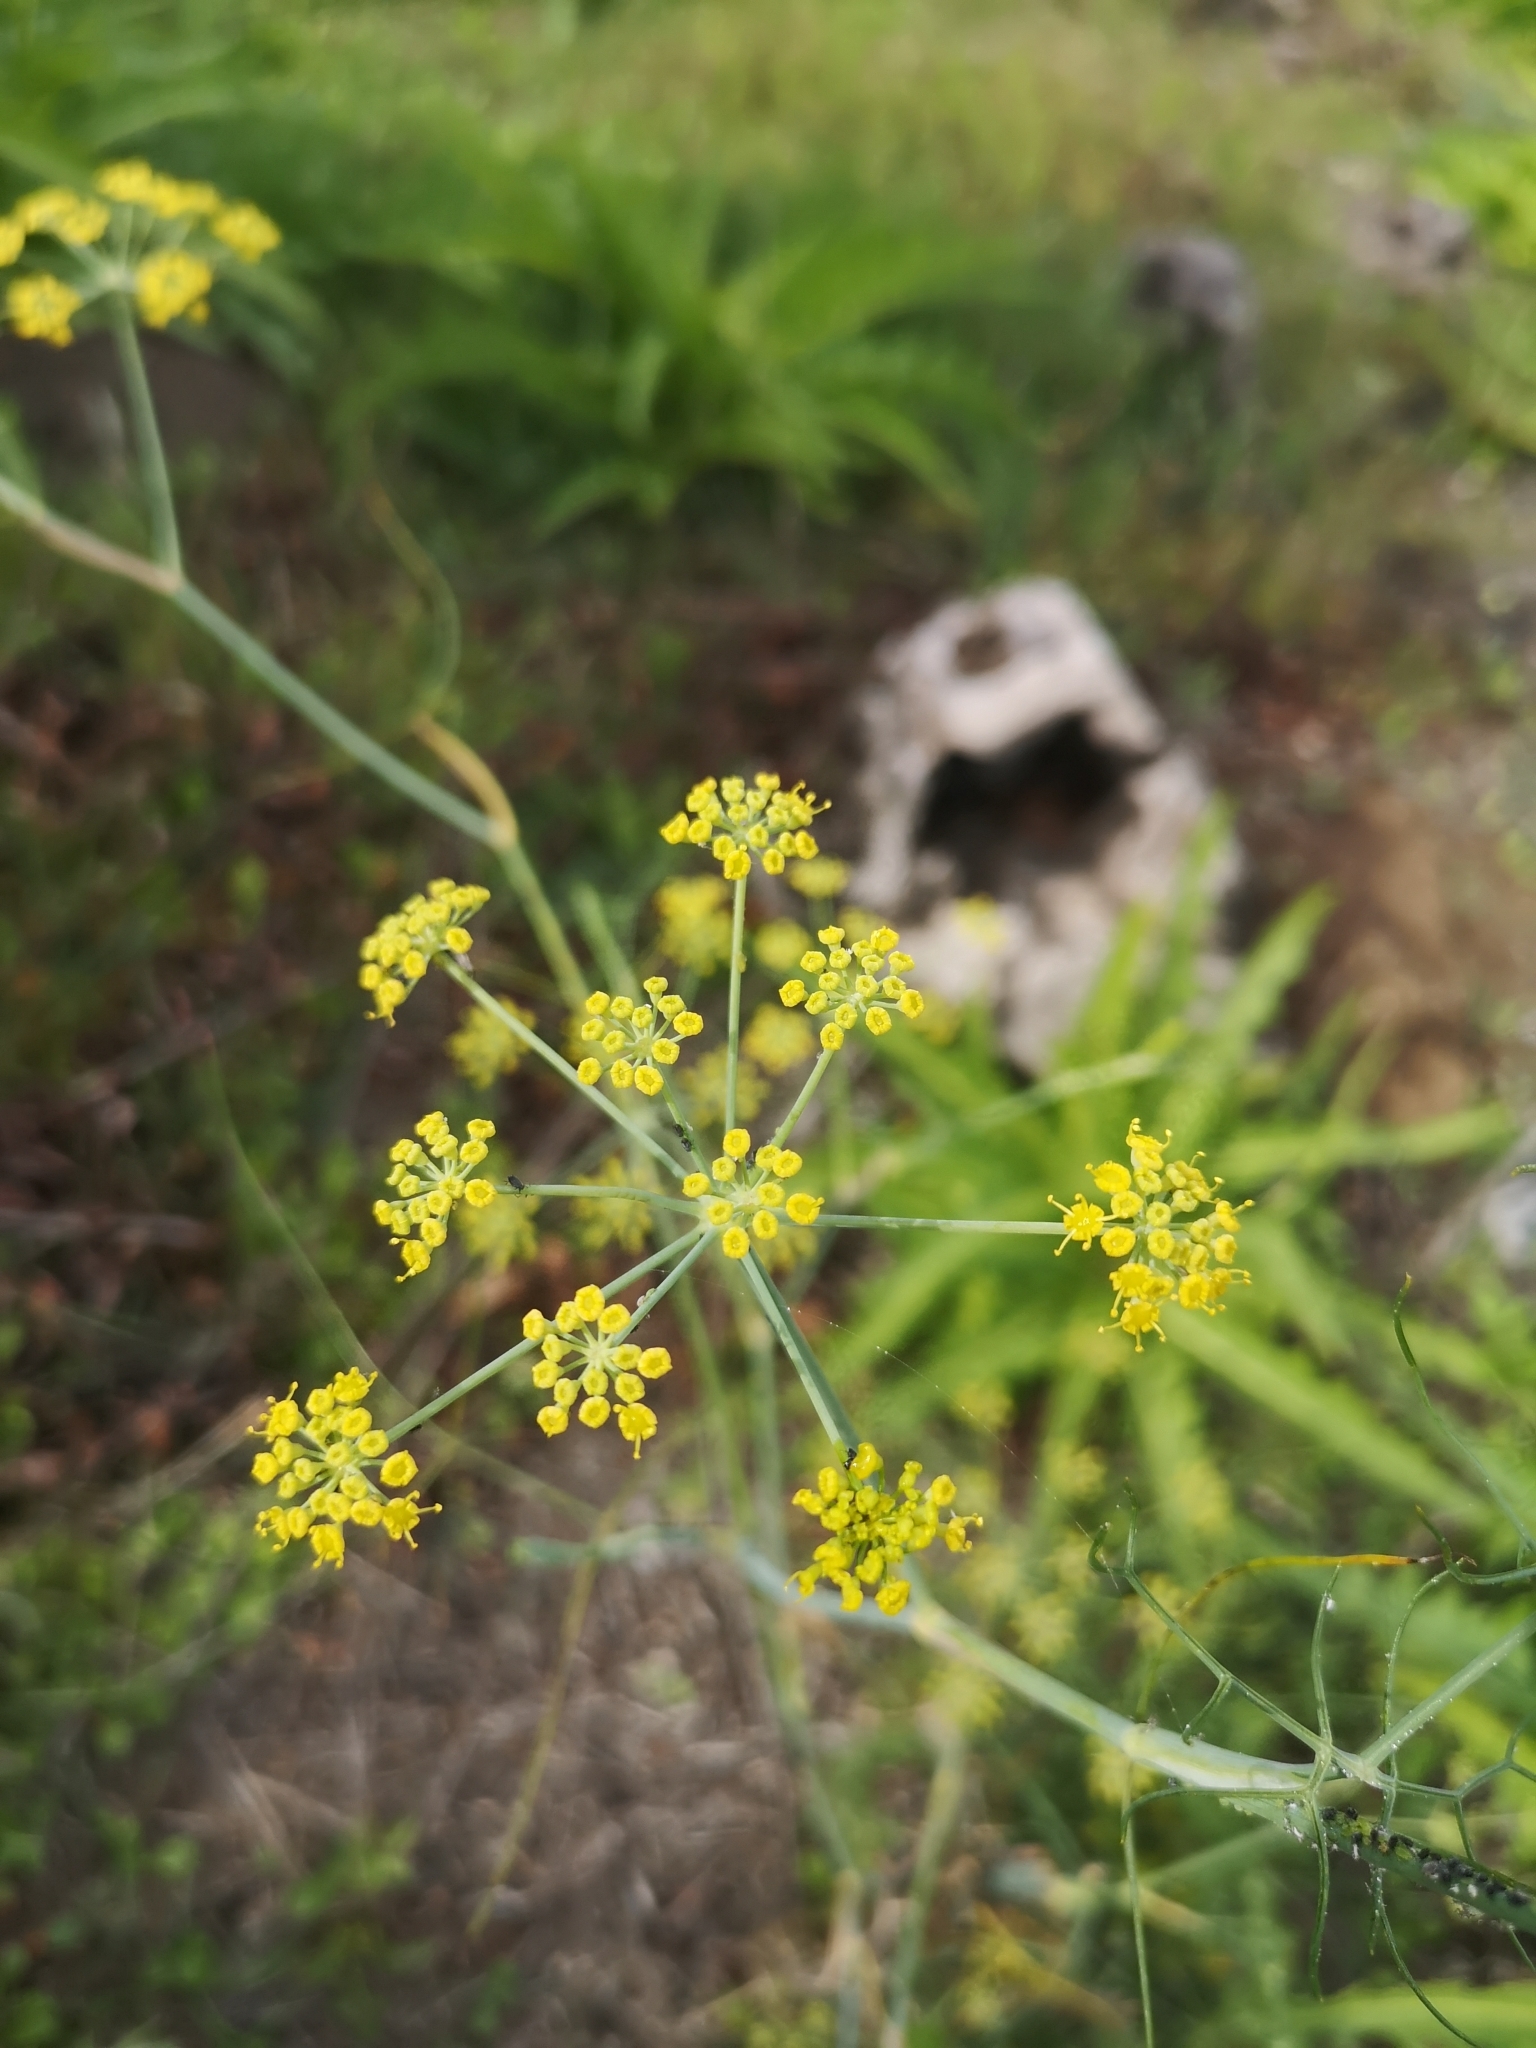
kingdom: Plantae
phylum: Tracheophyta
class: Magnoliopsida
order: Apiales
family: Apiaceae
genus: Foeniculum
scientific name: Foeniculum vulgare
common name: Fennel
